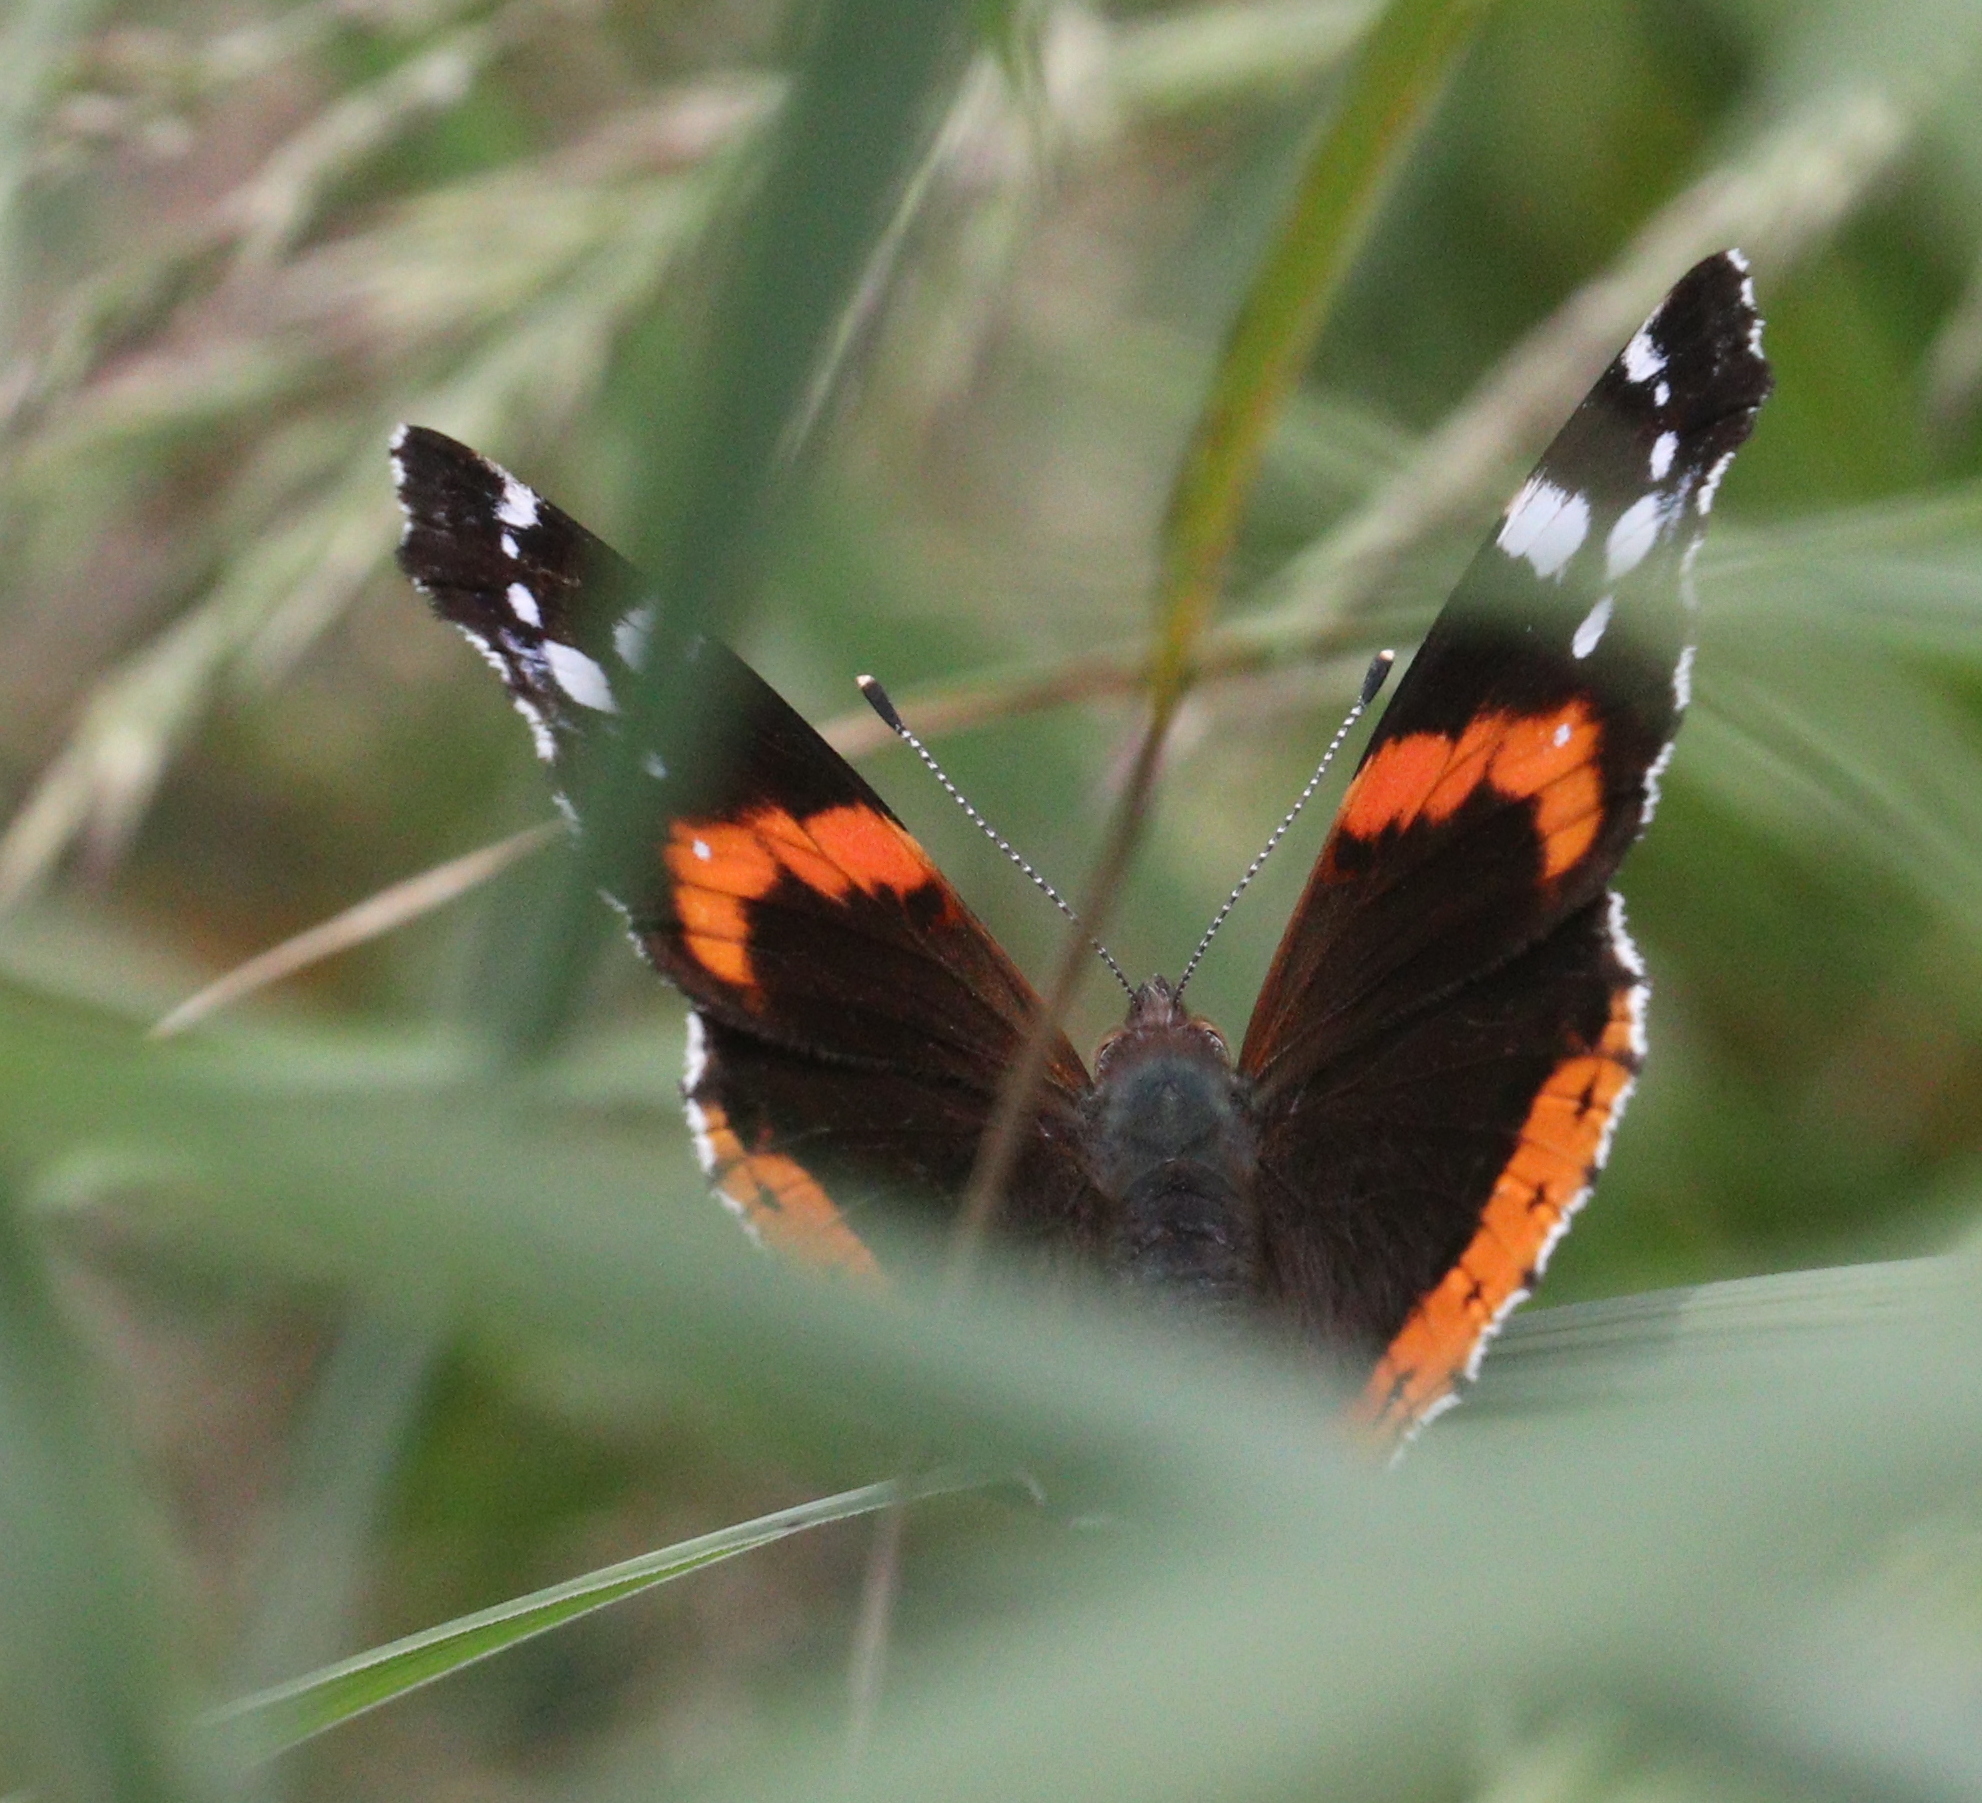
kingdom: Animalia
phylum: Arthropoda
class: Insecta
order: Lepidoptera
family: Nymphalidae
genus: Vanessa
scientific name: Vanessa atalanta
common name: Red admiral
